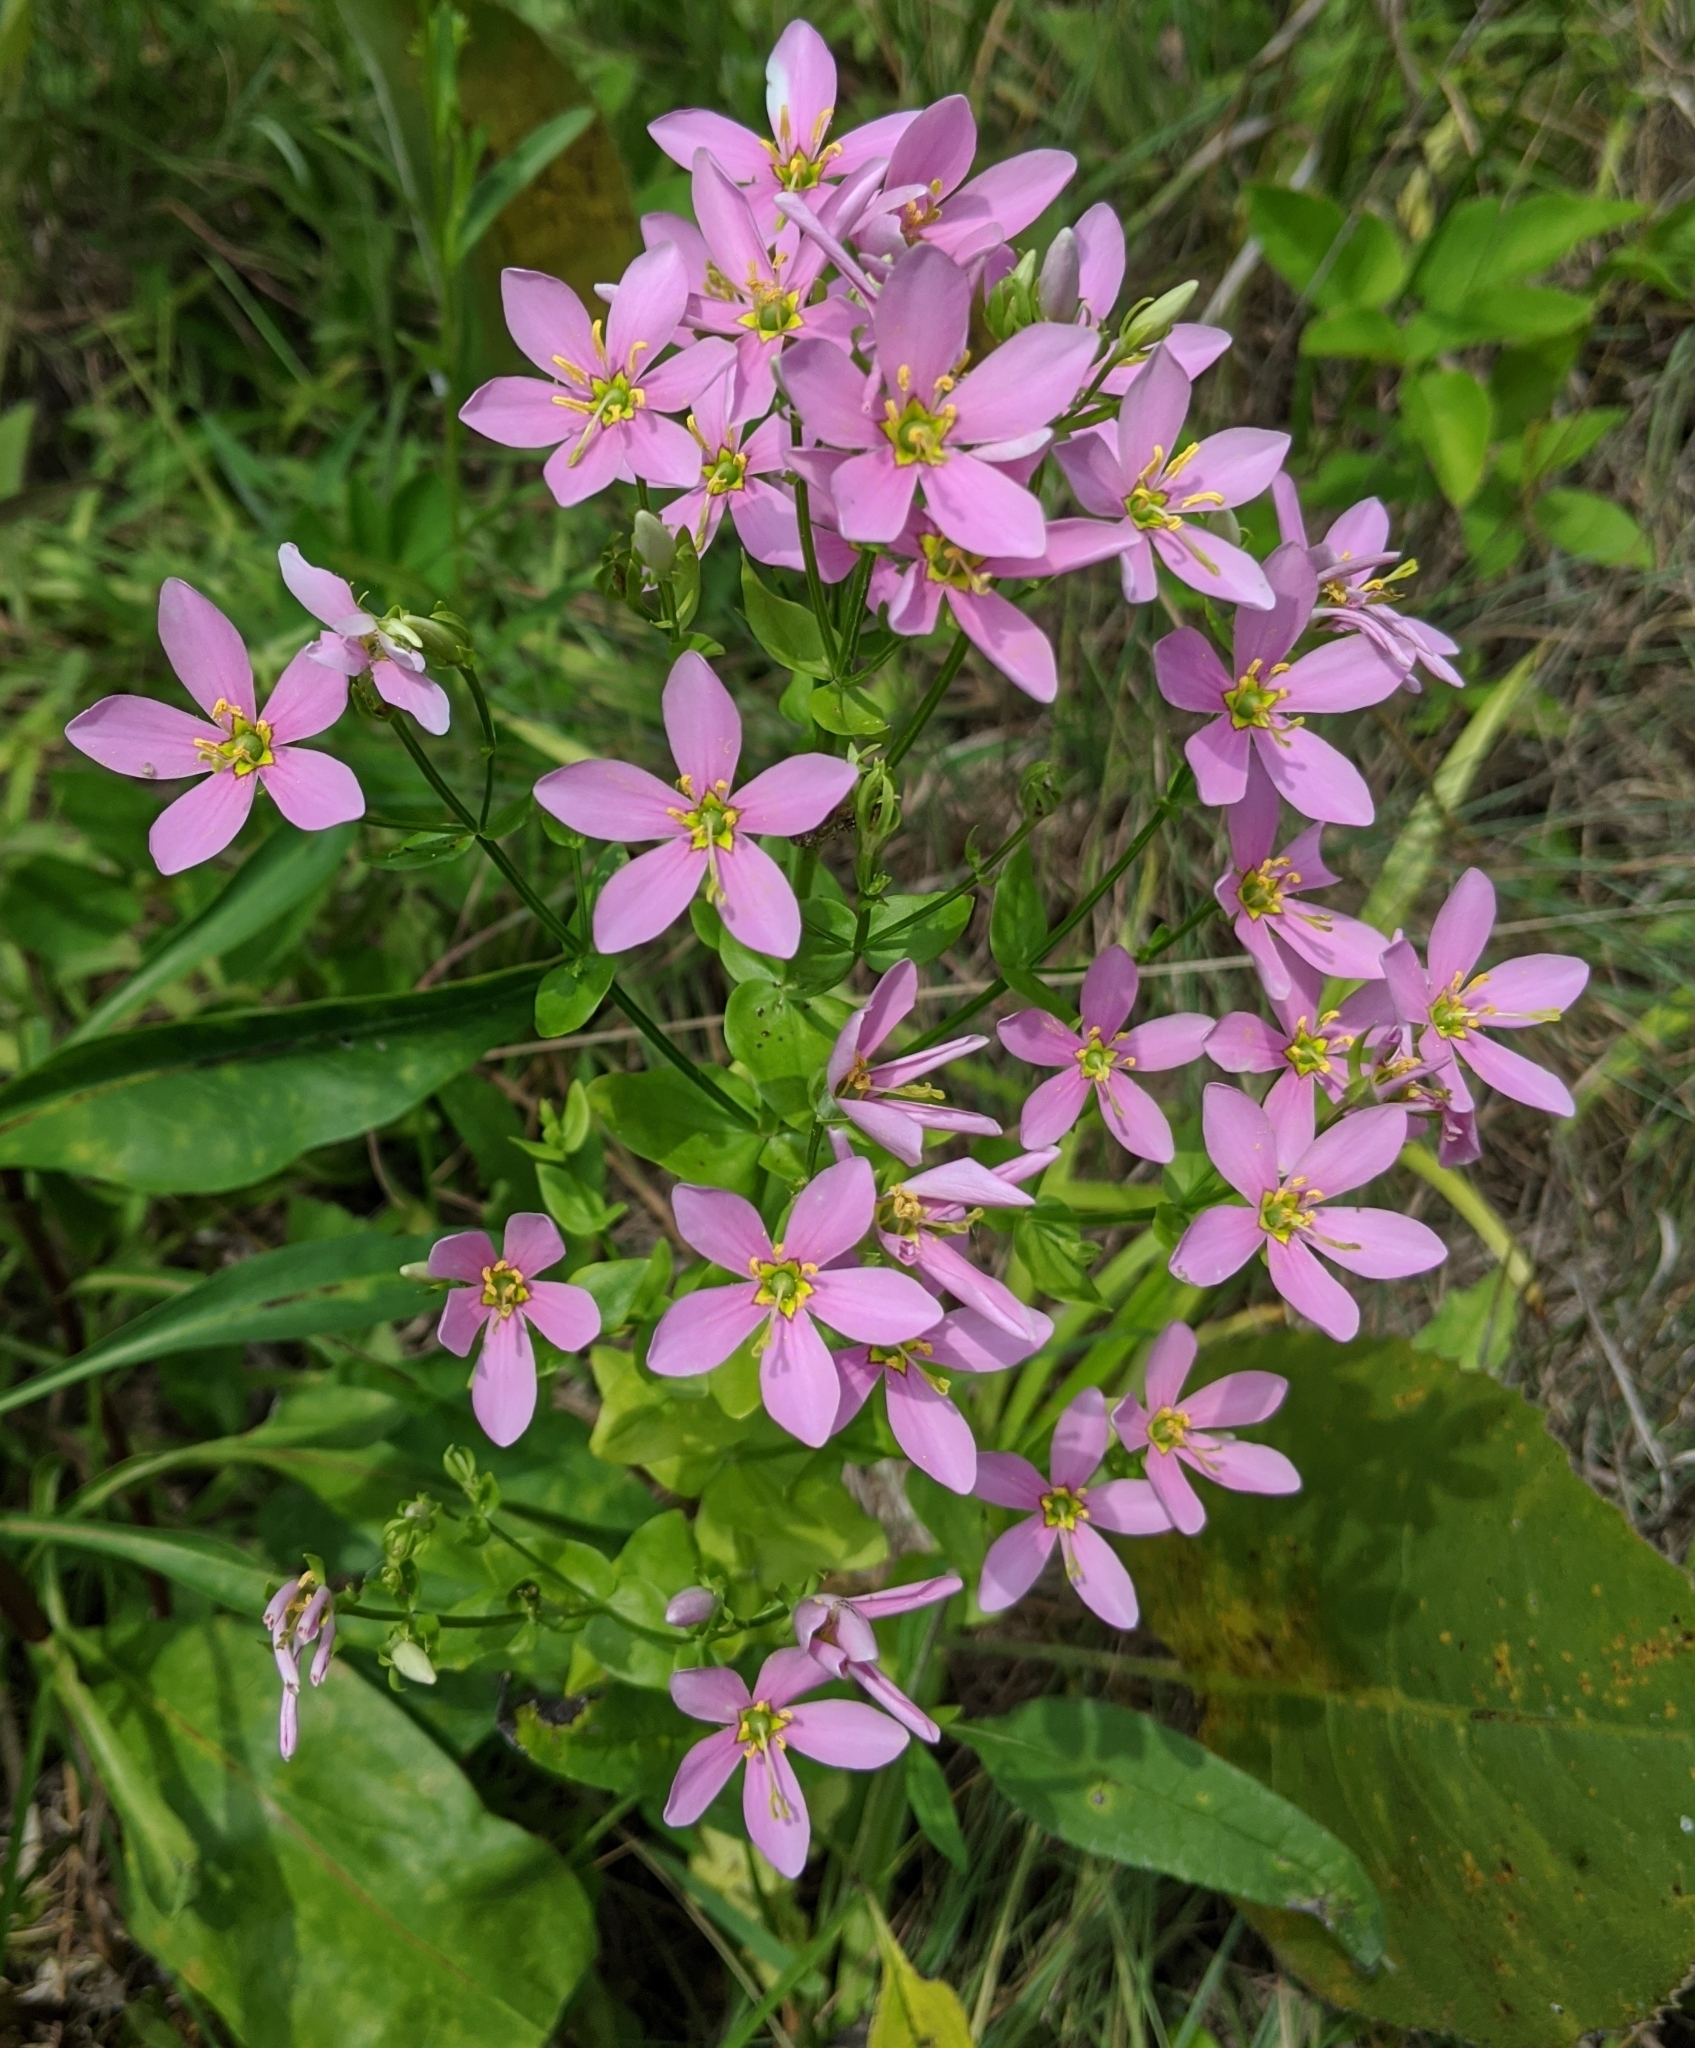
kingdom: Plantae
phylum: Tracheophyta
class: Magnoliopsida
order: Gentianales
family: Gentianaceae
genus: Sabatia
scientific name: Sabatia angularis
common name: Rose-pink
